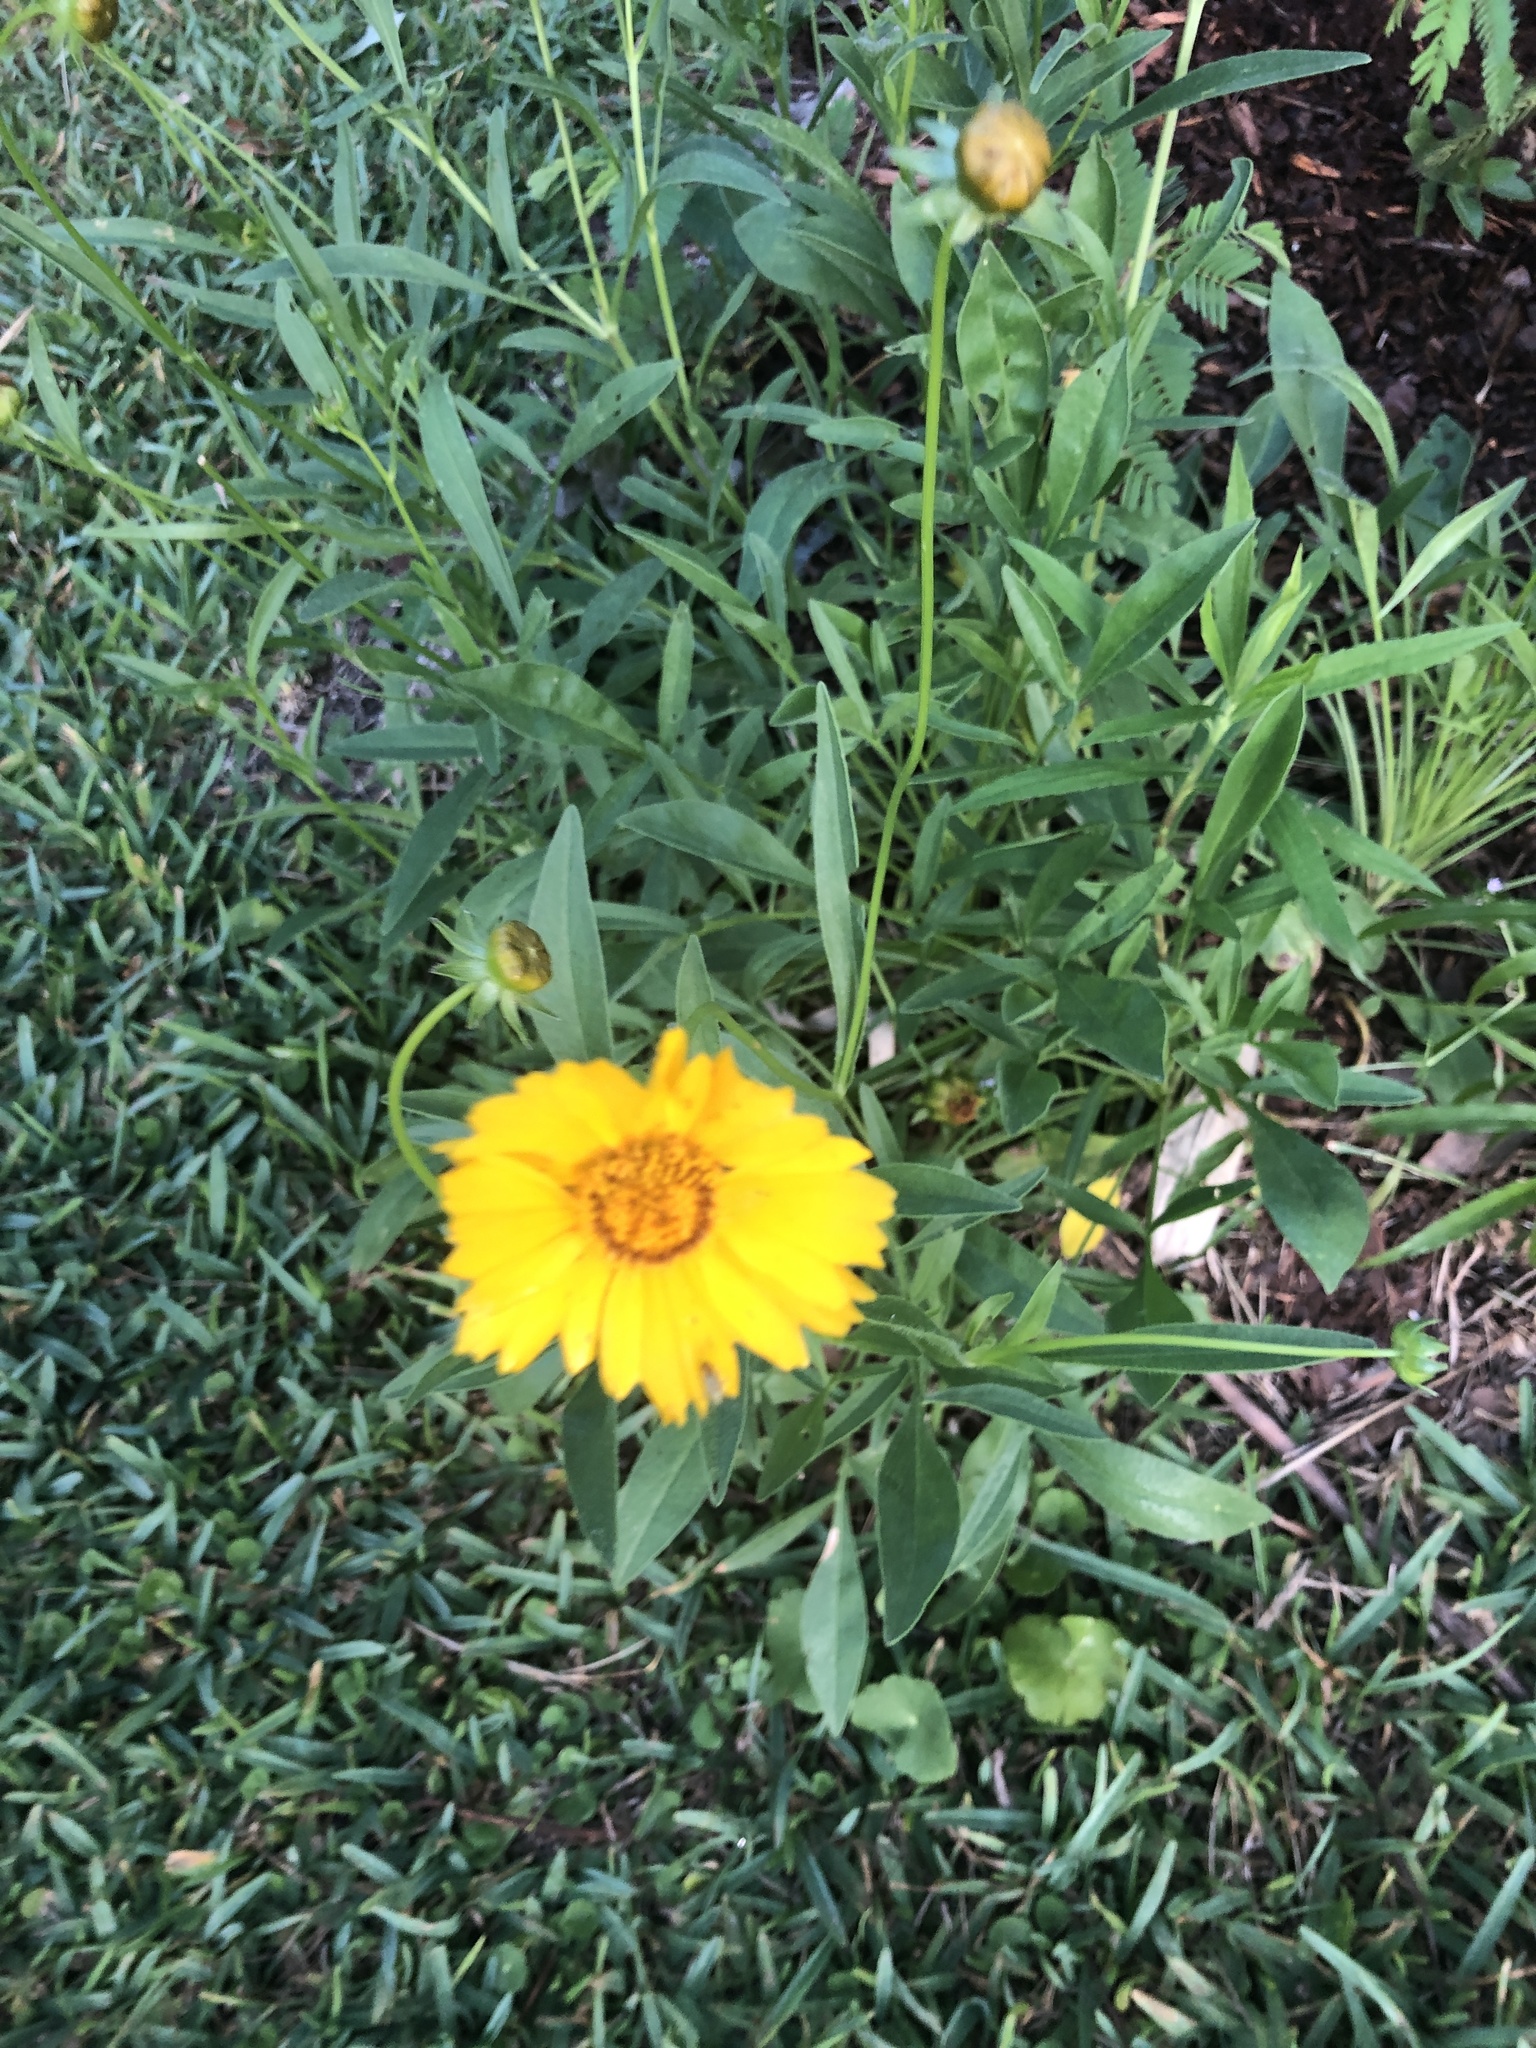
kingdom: Plantae
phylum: Tracheophyta
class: Magnoliopsida
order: Asterales
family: Asteraceae
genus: Coreopsis
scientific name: Coreopsis lanceolata
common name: Garden coreopsis
